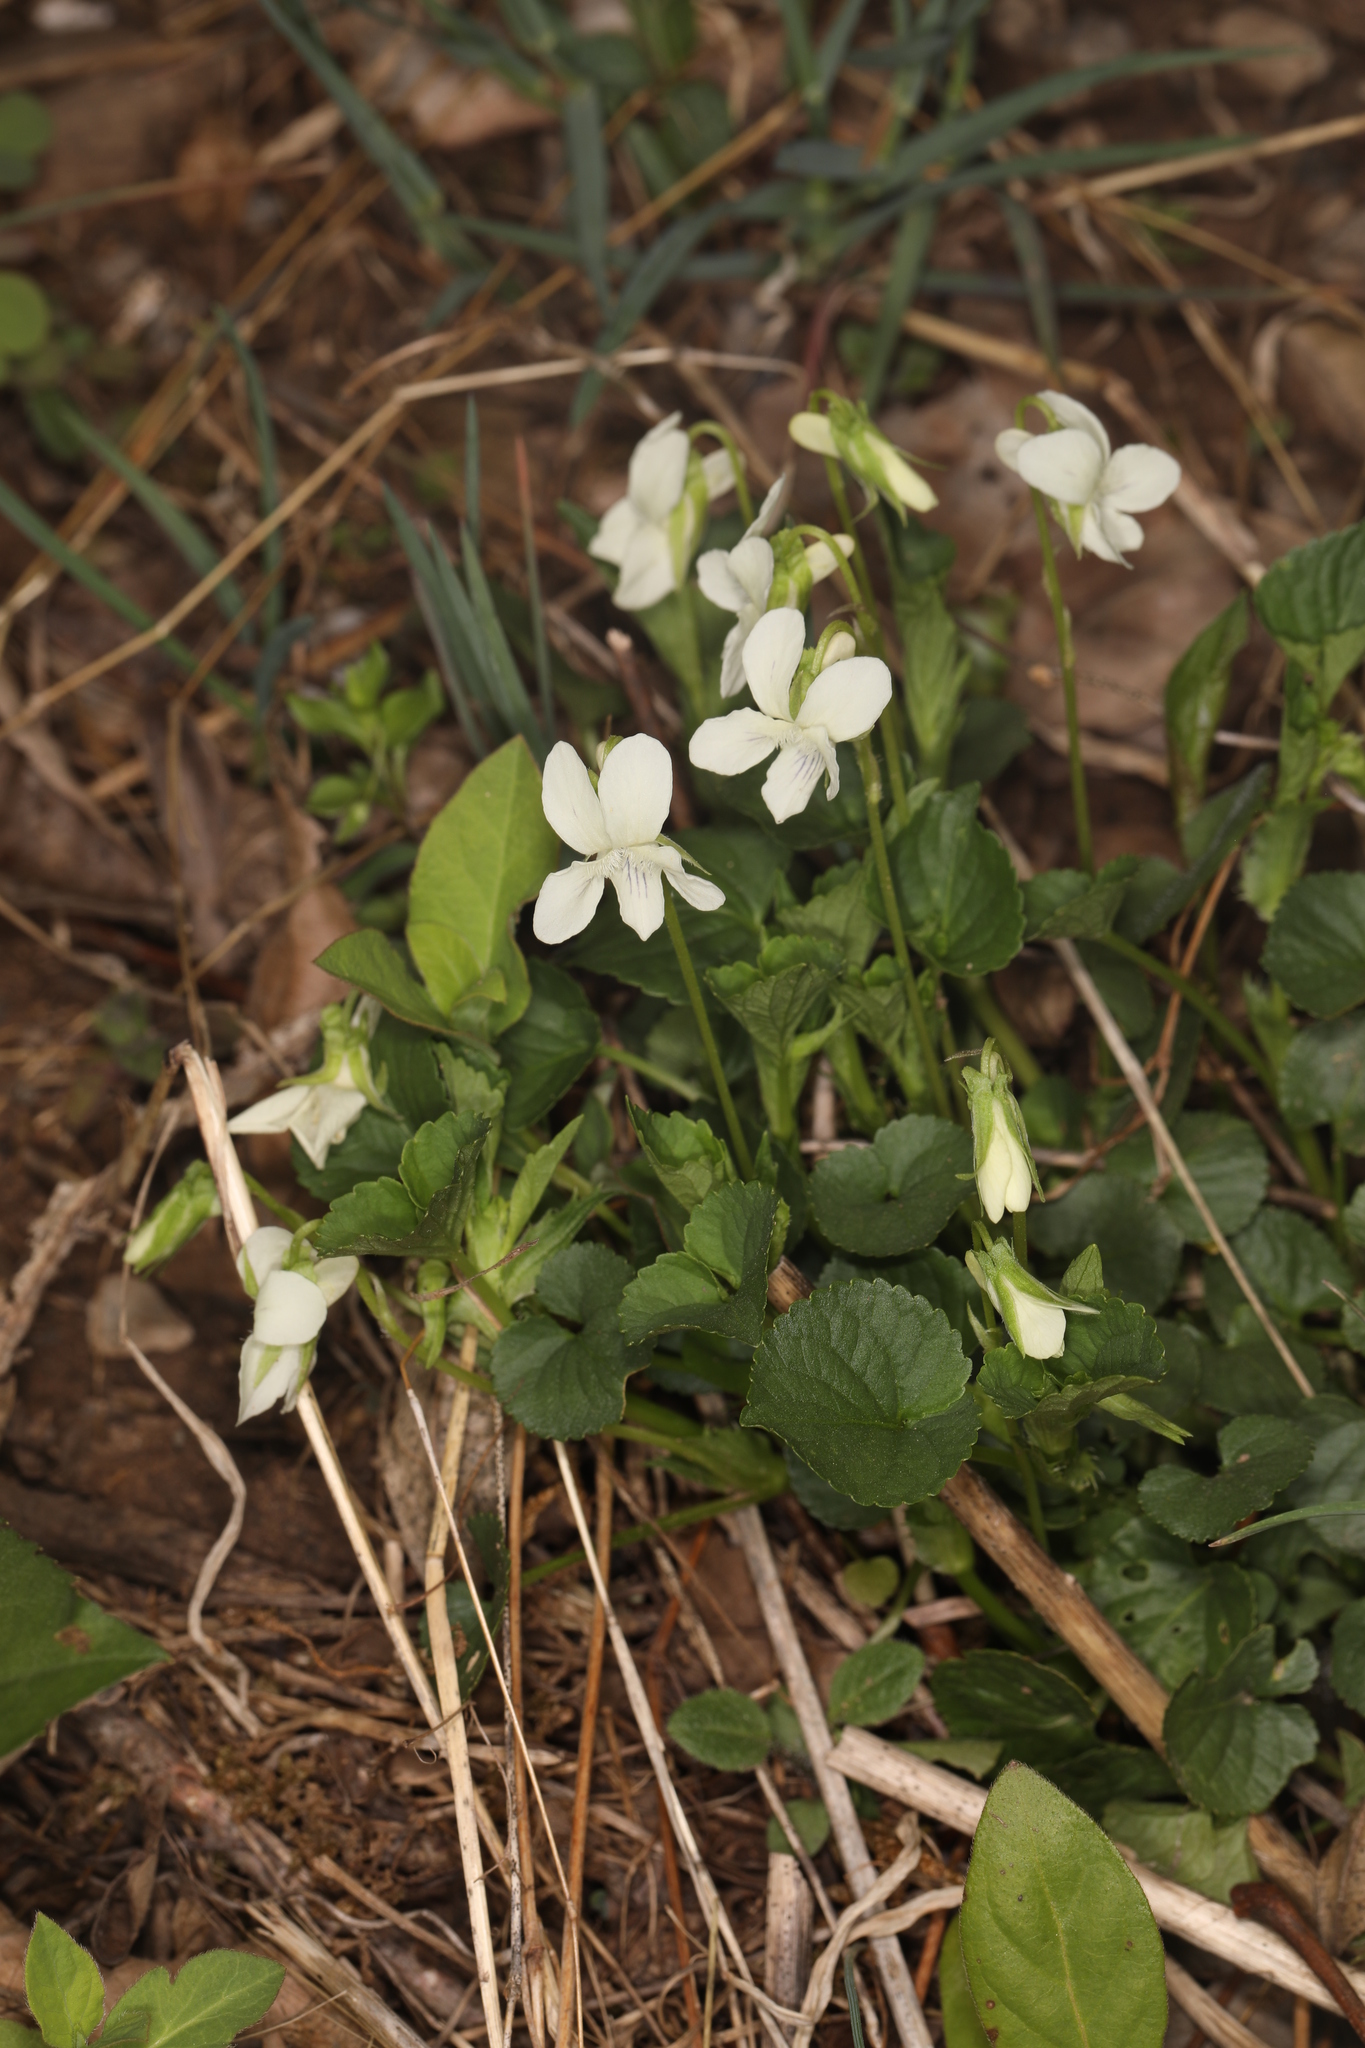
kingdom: Plantae
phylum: Tracheophyta
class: Magnoliopsida
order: Malpighiales
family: Violaceae
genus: Viola
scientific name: Viola striata
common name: Cream violet
